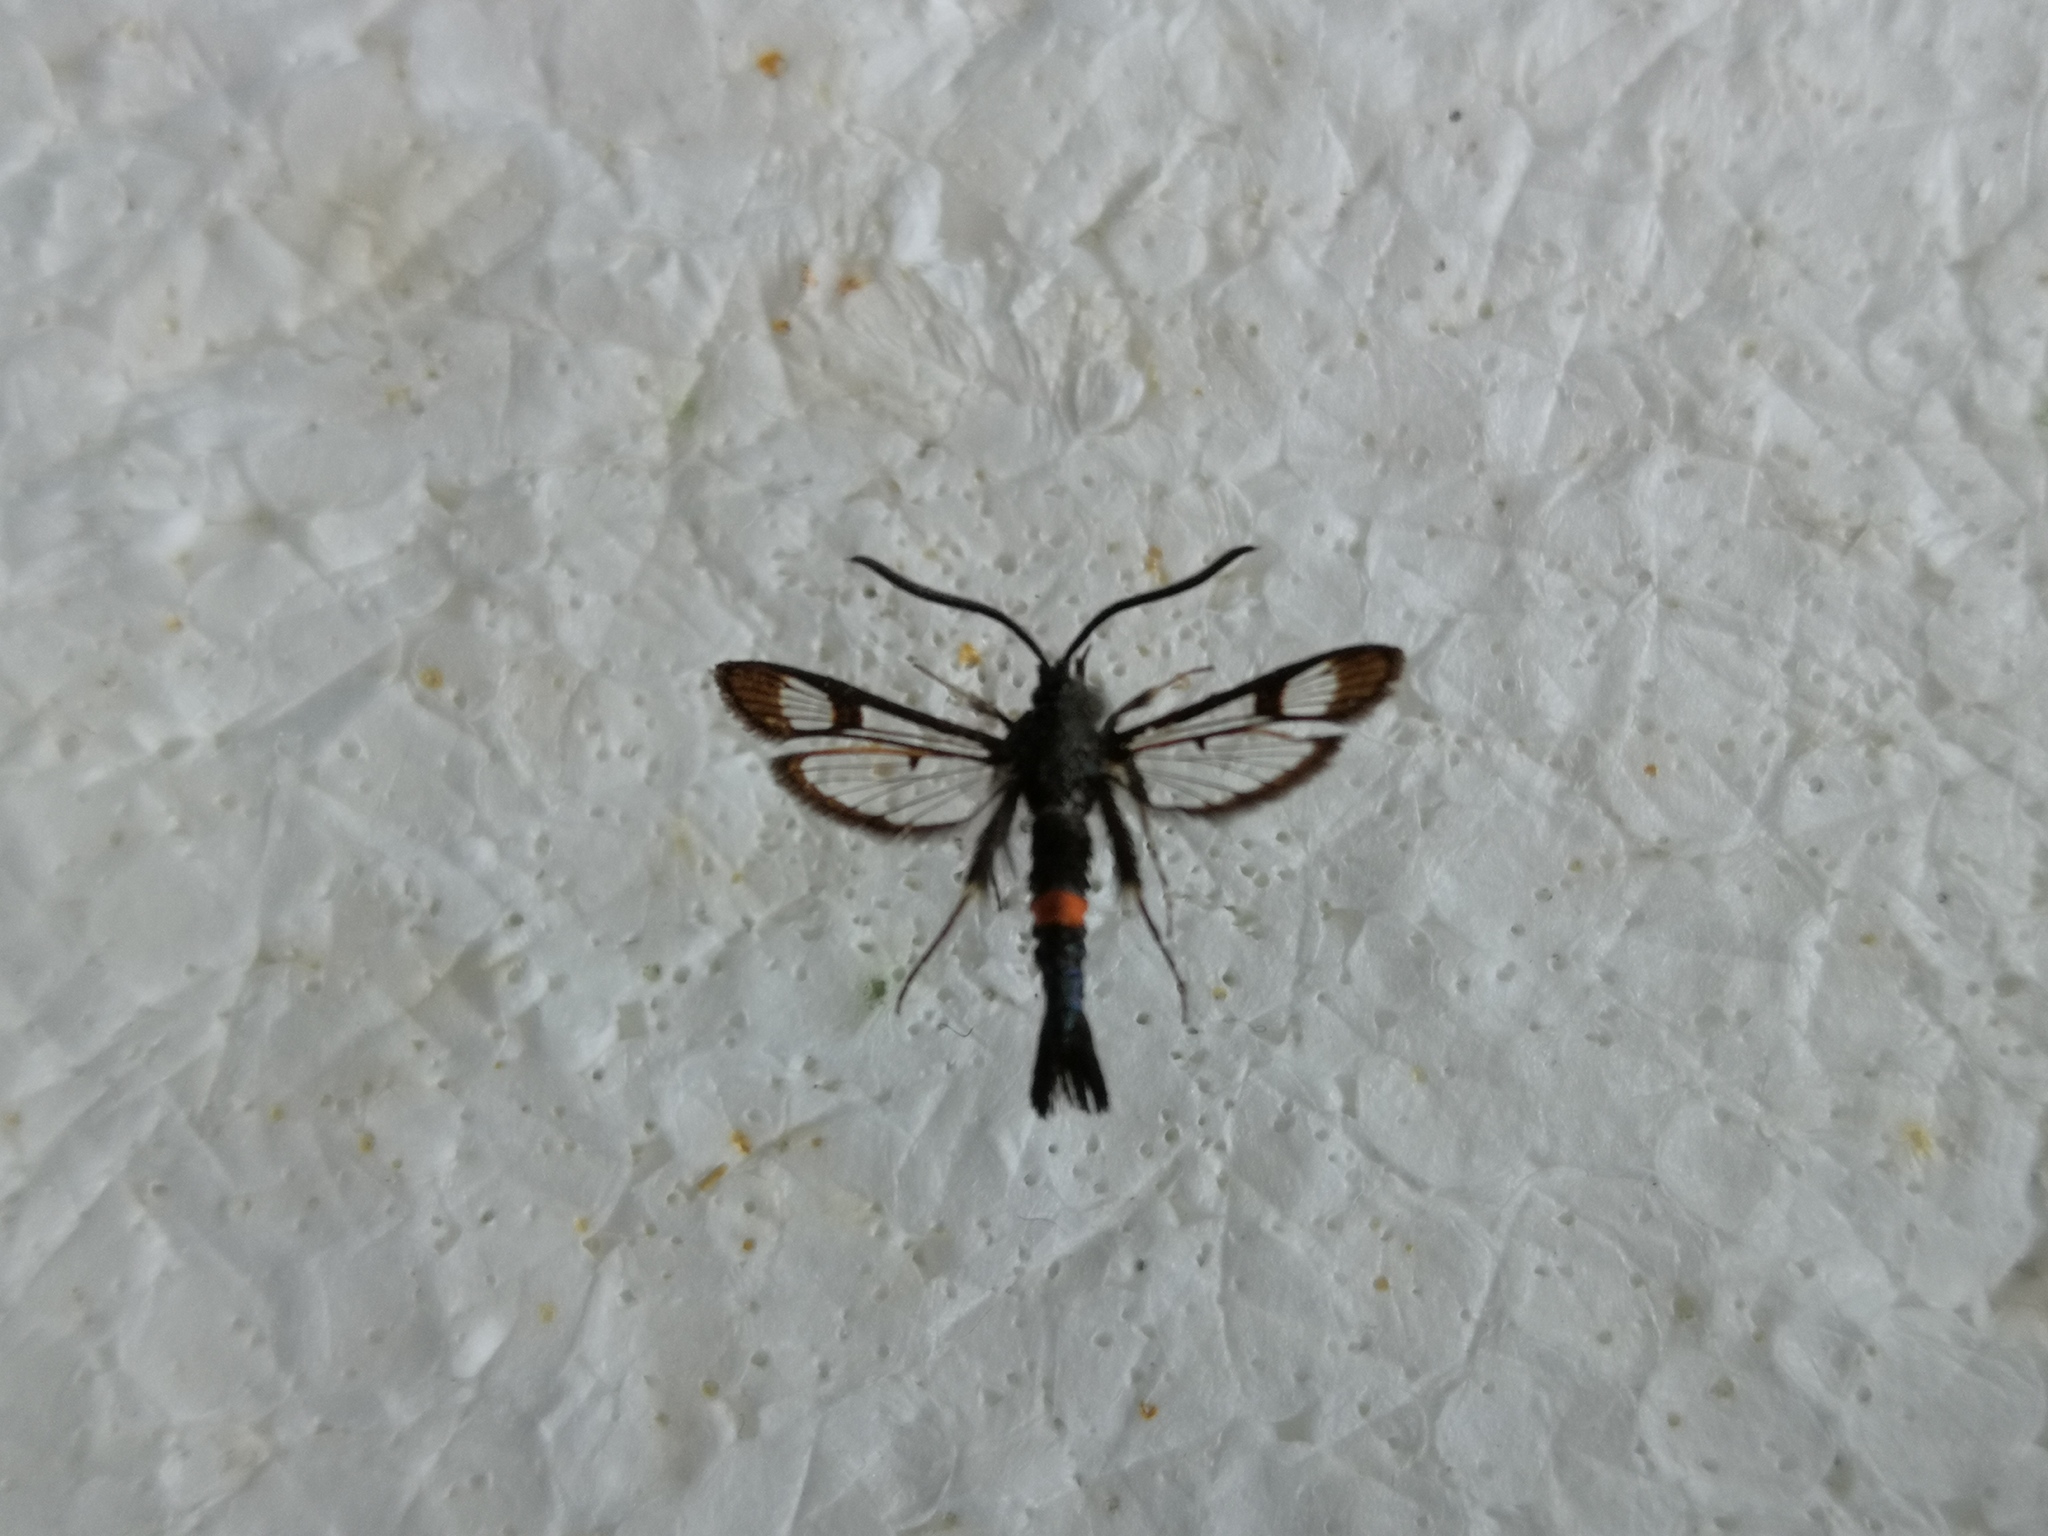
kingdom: Animalia
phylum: Arthropoda
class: Insecta
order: Lepidoptera
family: Sesiidae
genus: Synanthedon
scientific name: Synanthedon myopaeformis
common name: Red-belted clearwing
